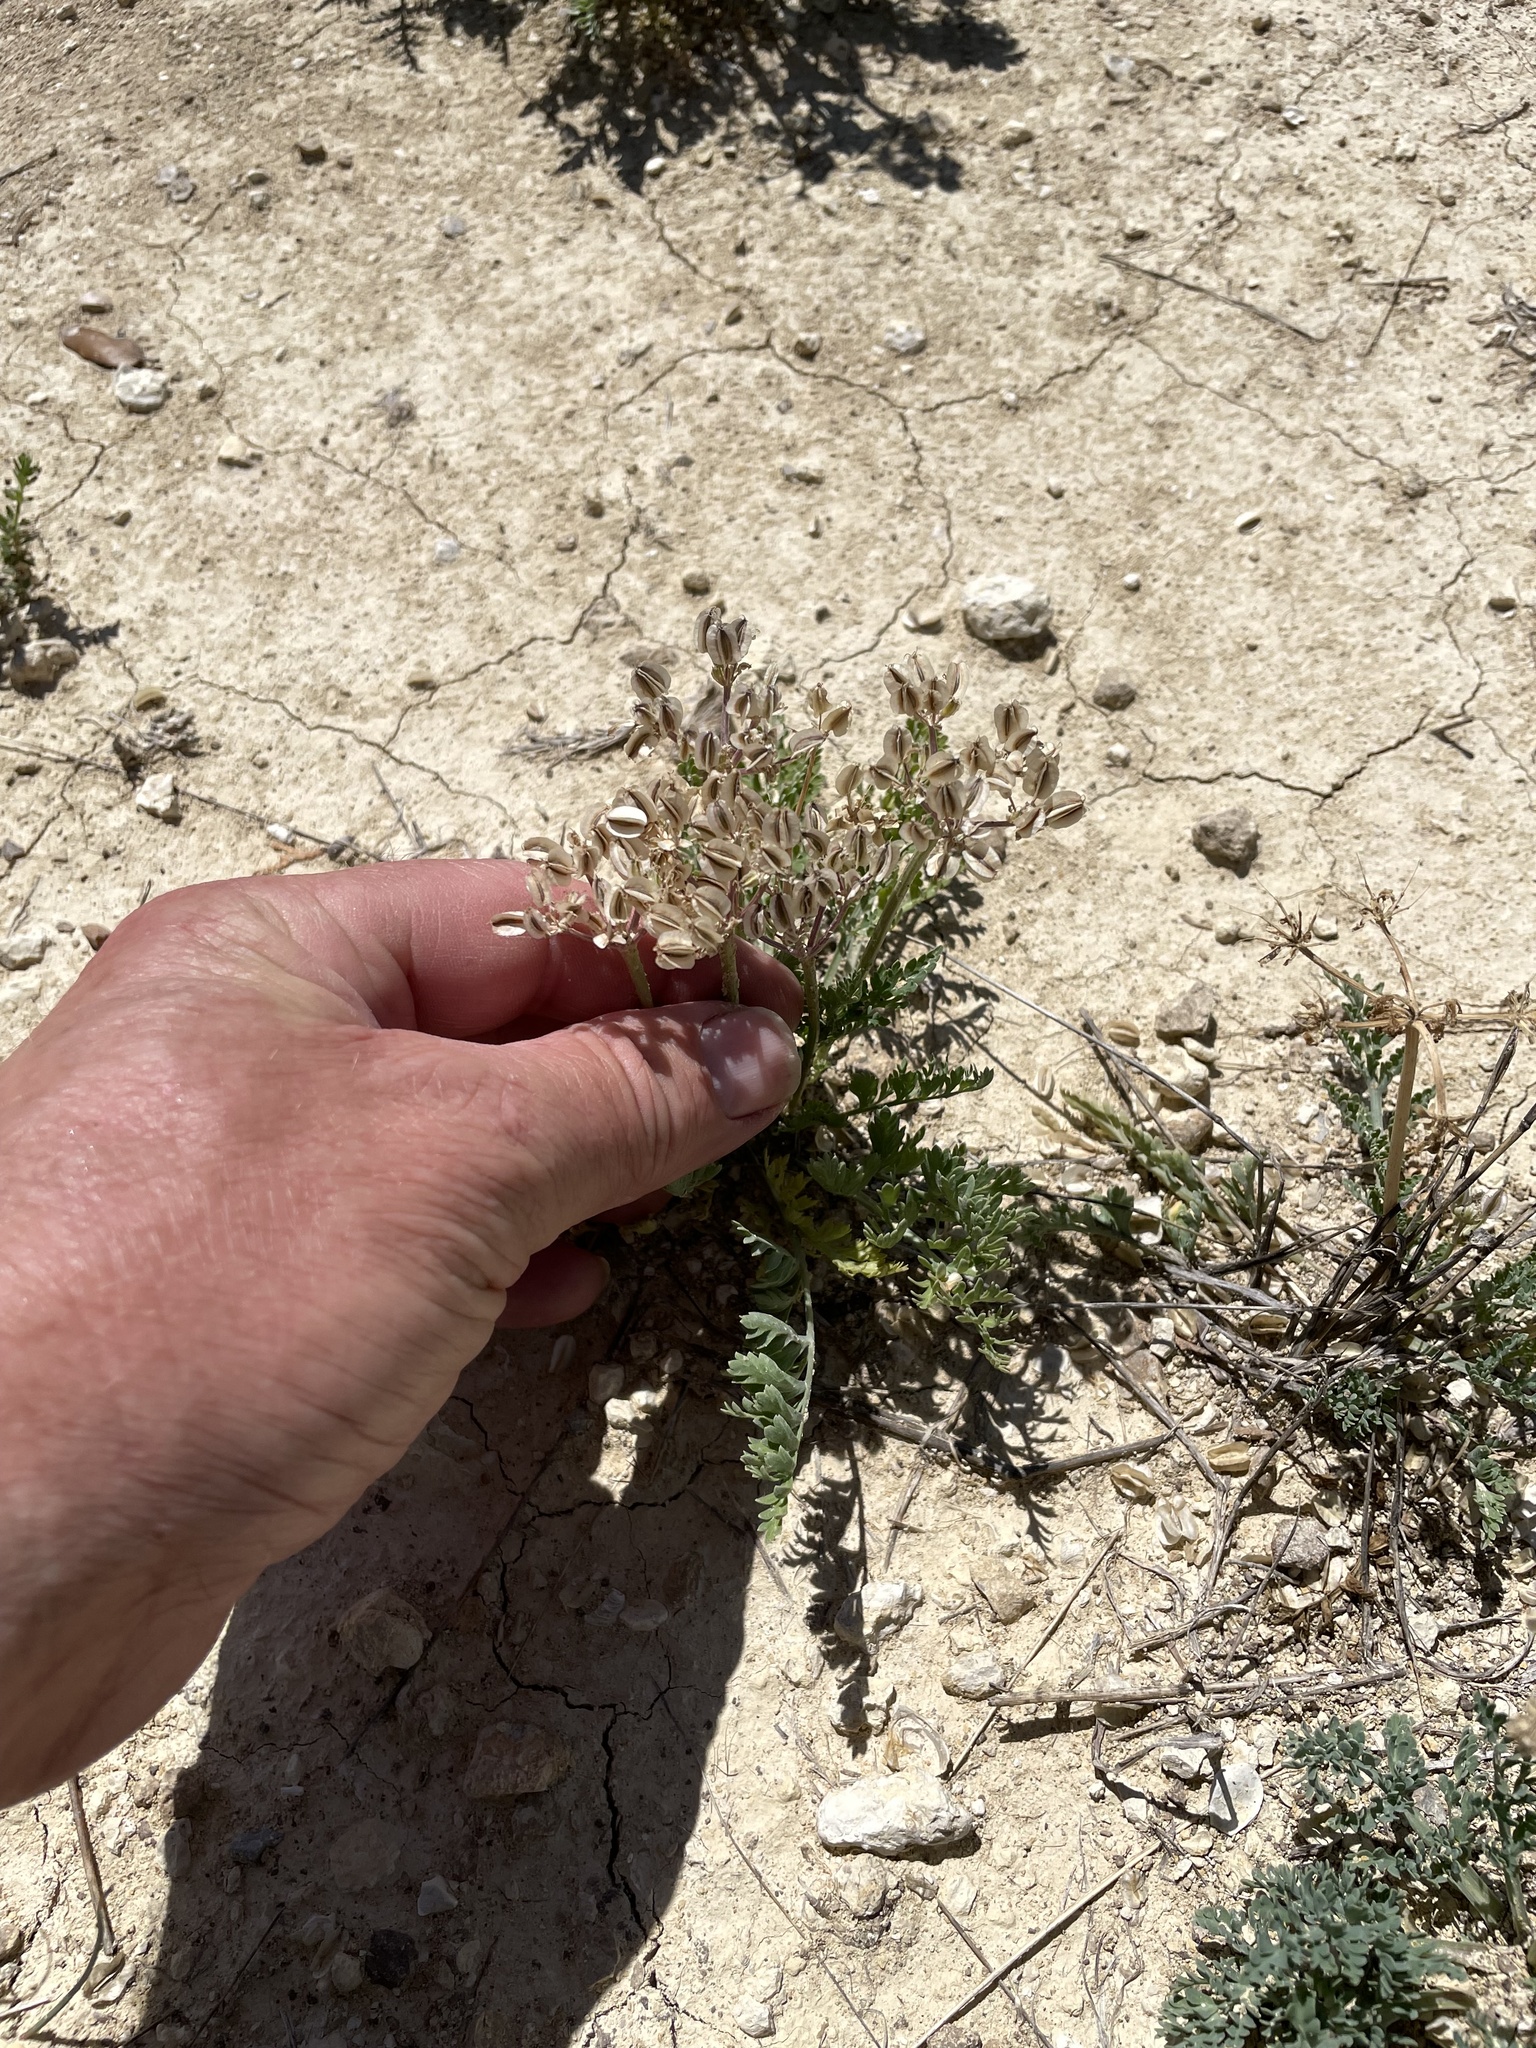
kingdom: Plantae
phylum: Tracheophyta
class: Magnoliopsida
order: Apiales
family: Apiaceae
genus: Vesper
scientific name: Vesper macrorhizus
